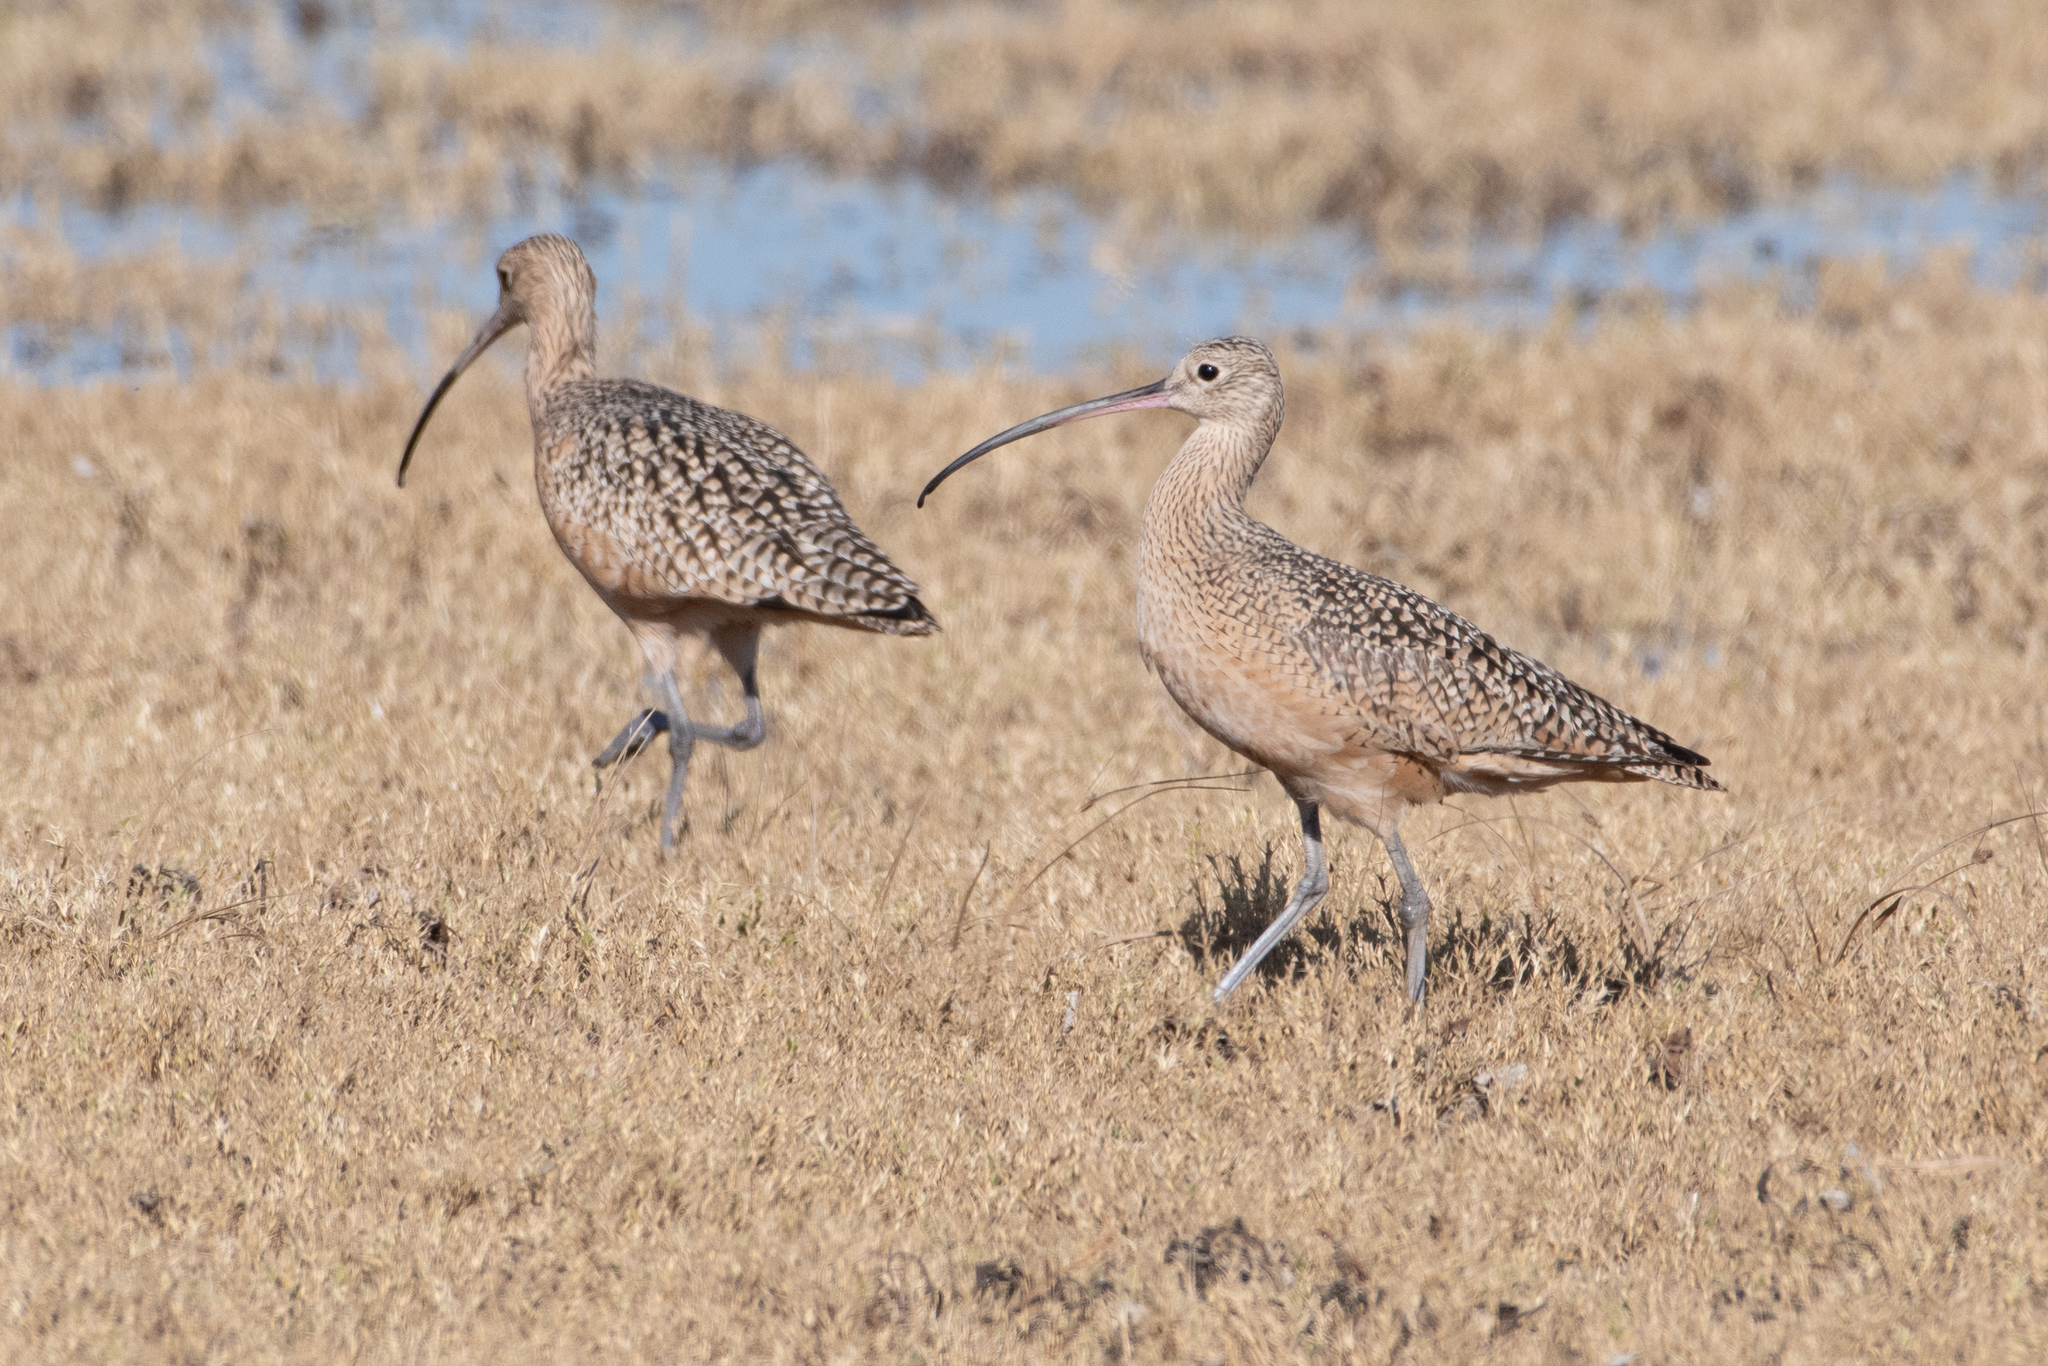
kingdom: Animalia
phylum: Chordata
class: Aves
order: Charadriiformes
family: Scolopacidae
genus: Numenius
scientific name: Numenius americanus
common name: Long-billed curlew
